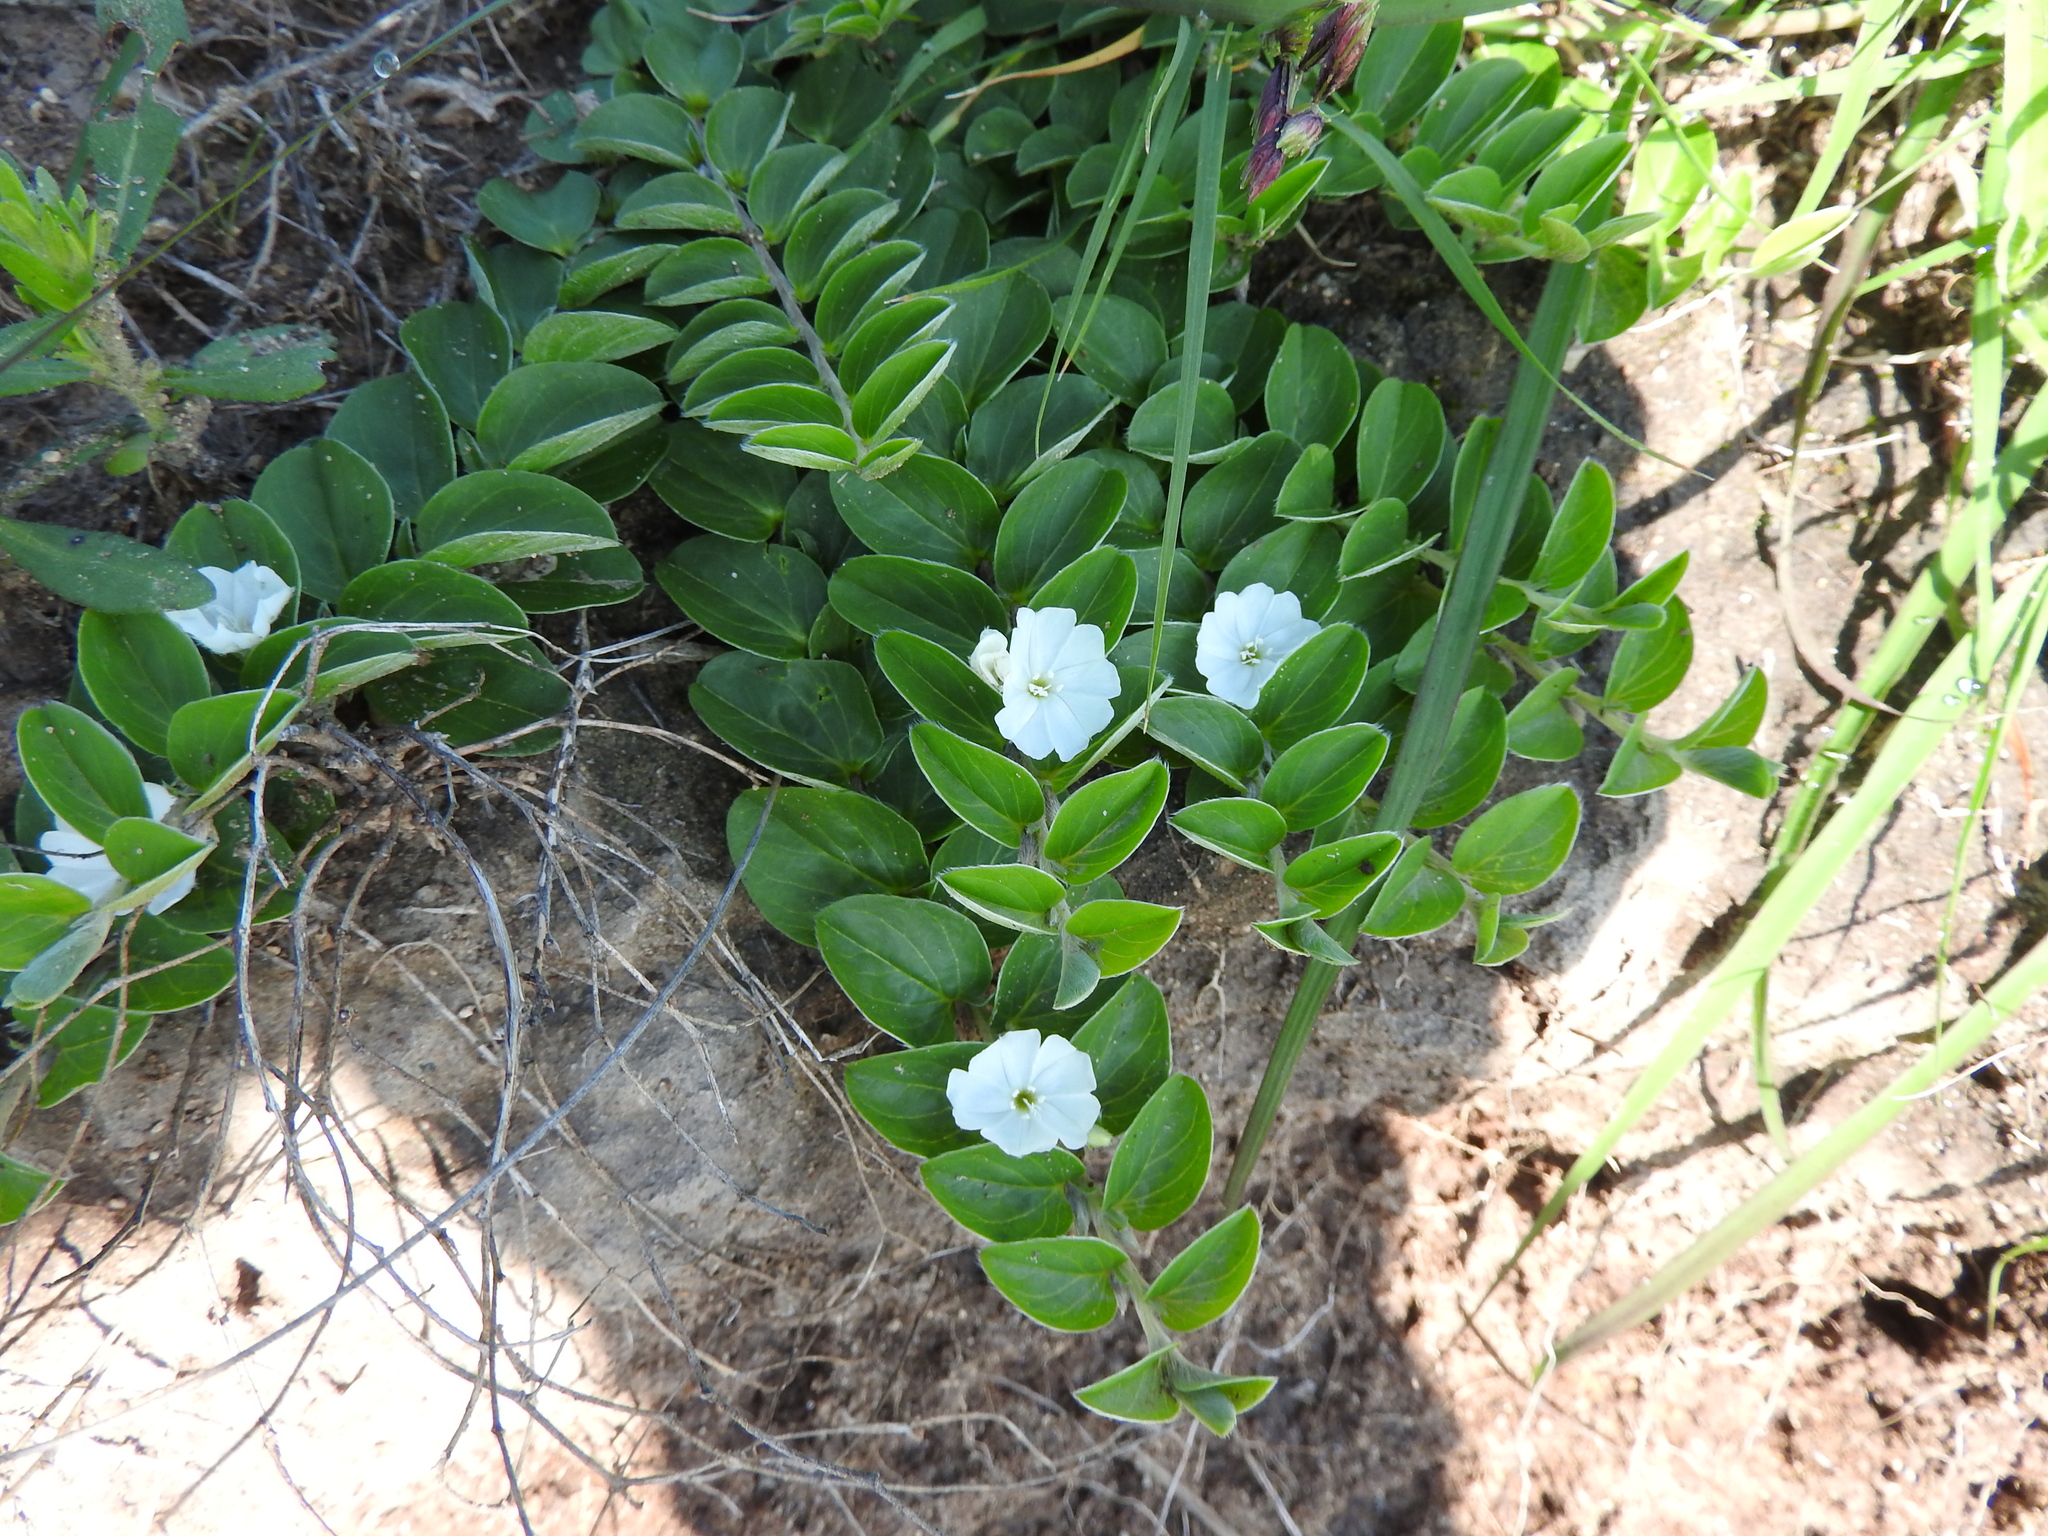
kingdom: Plantae
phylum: Tracheophyta
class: Magnoliopsida
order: Solanales
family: Convolvulaceae
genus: Evolvulus
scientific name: Evolvulus prostratus
